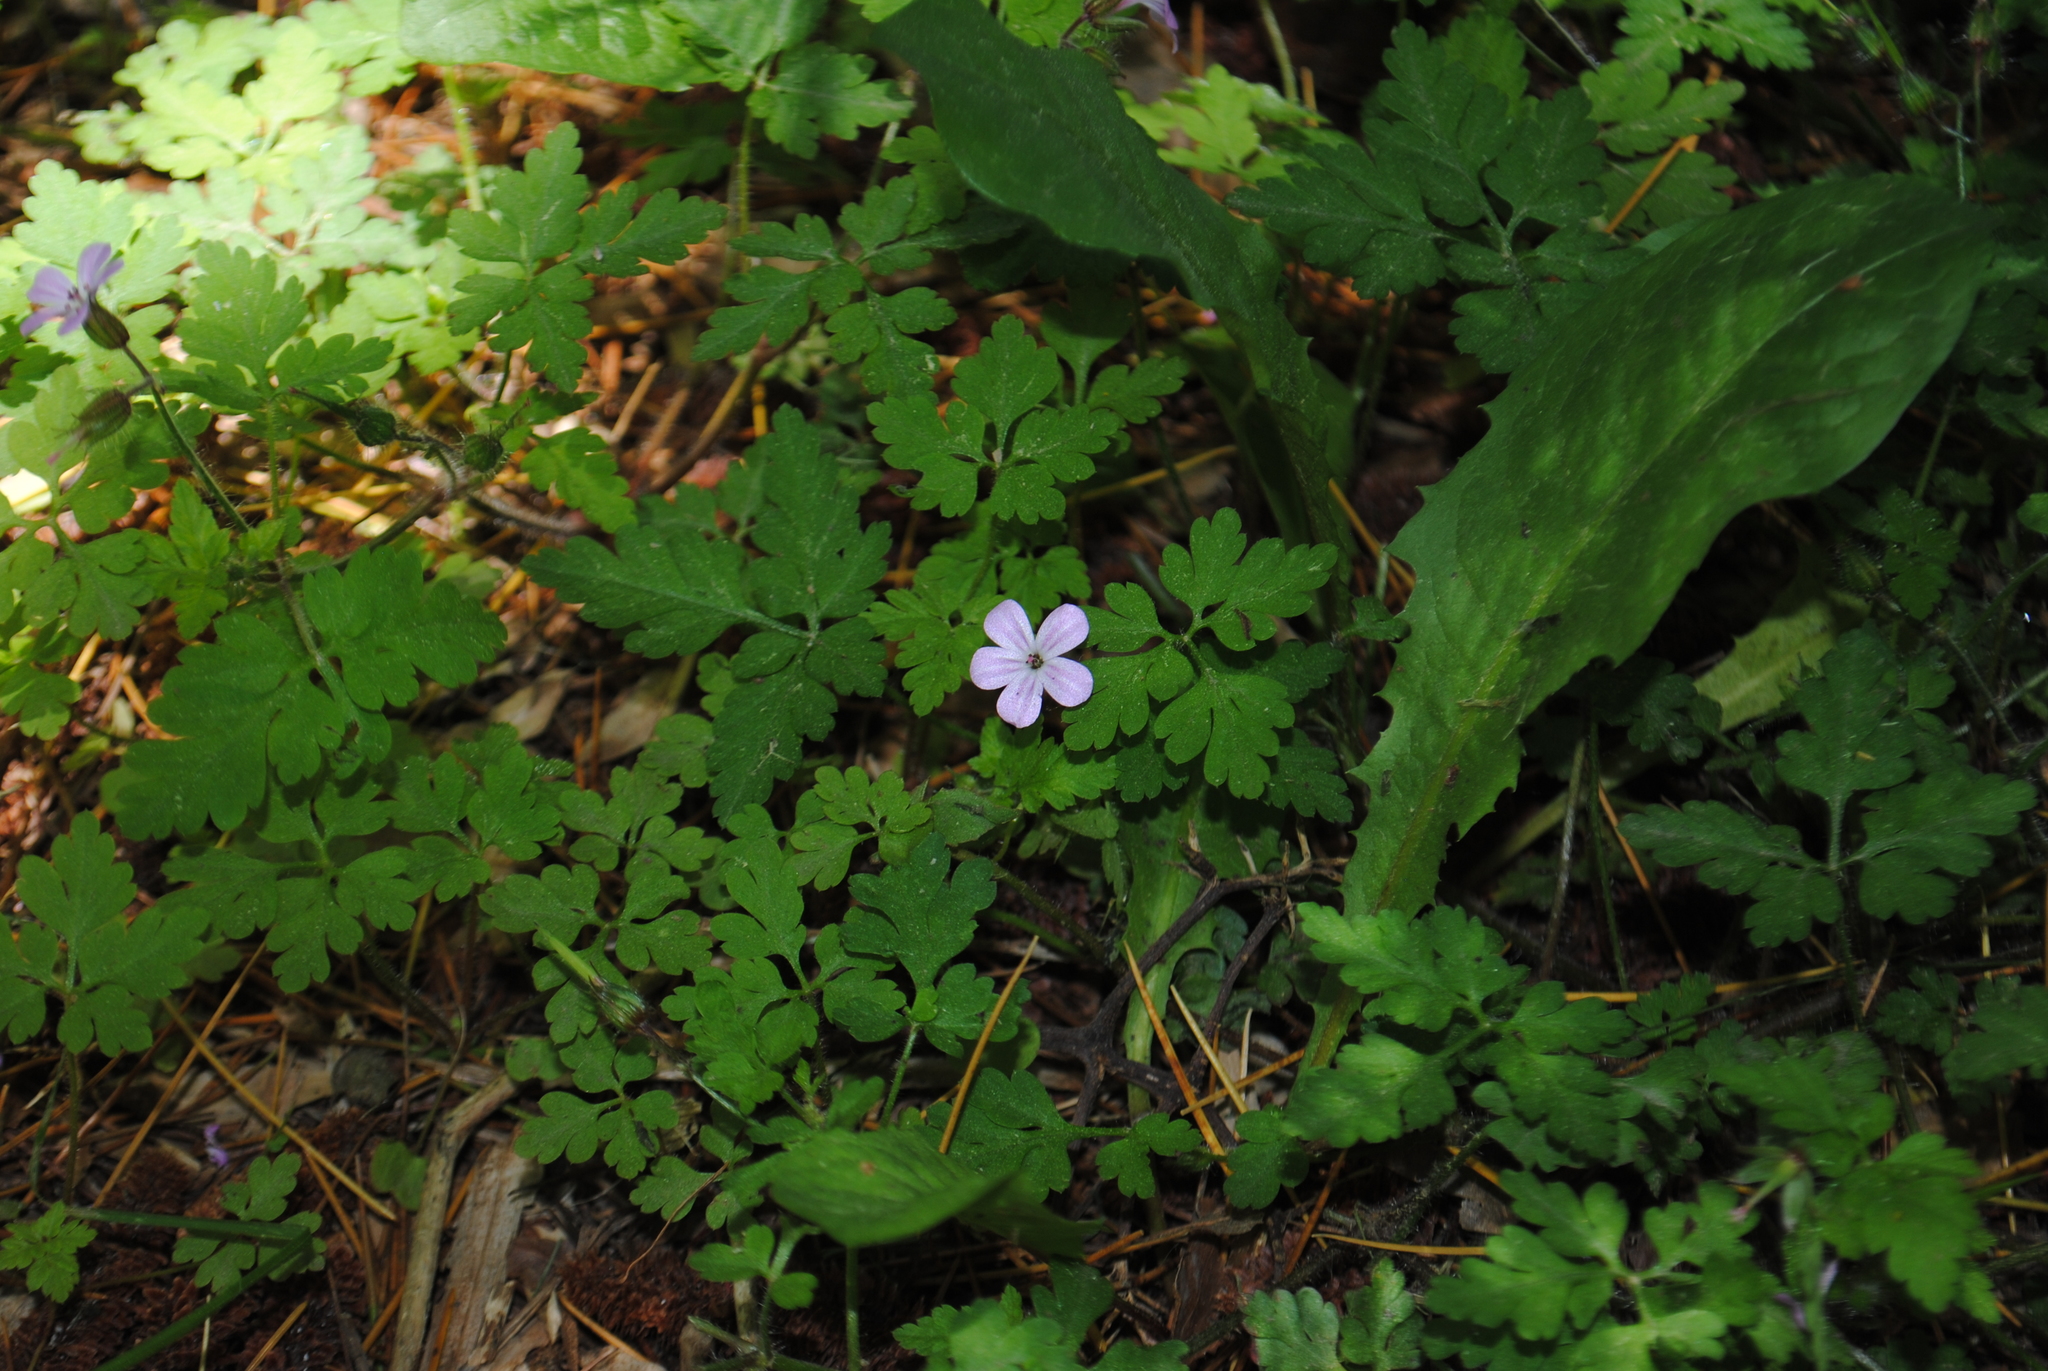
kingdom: Plantae
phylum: Tracheophyta
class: Magnoliopsida
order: Geraniales
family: Geraniaceae
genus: Geranium
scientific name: Geranium robertianum
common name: Herb-robert
